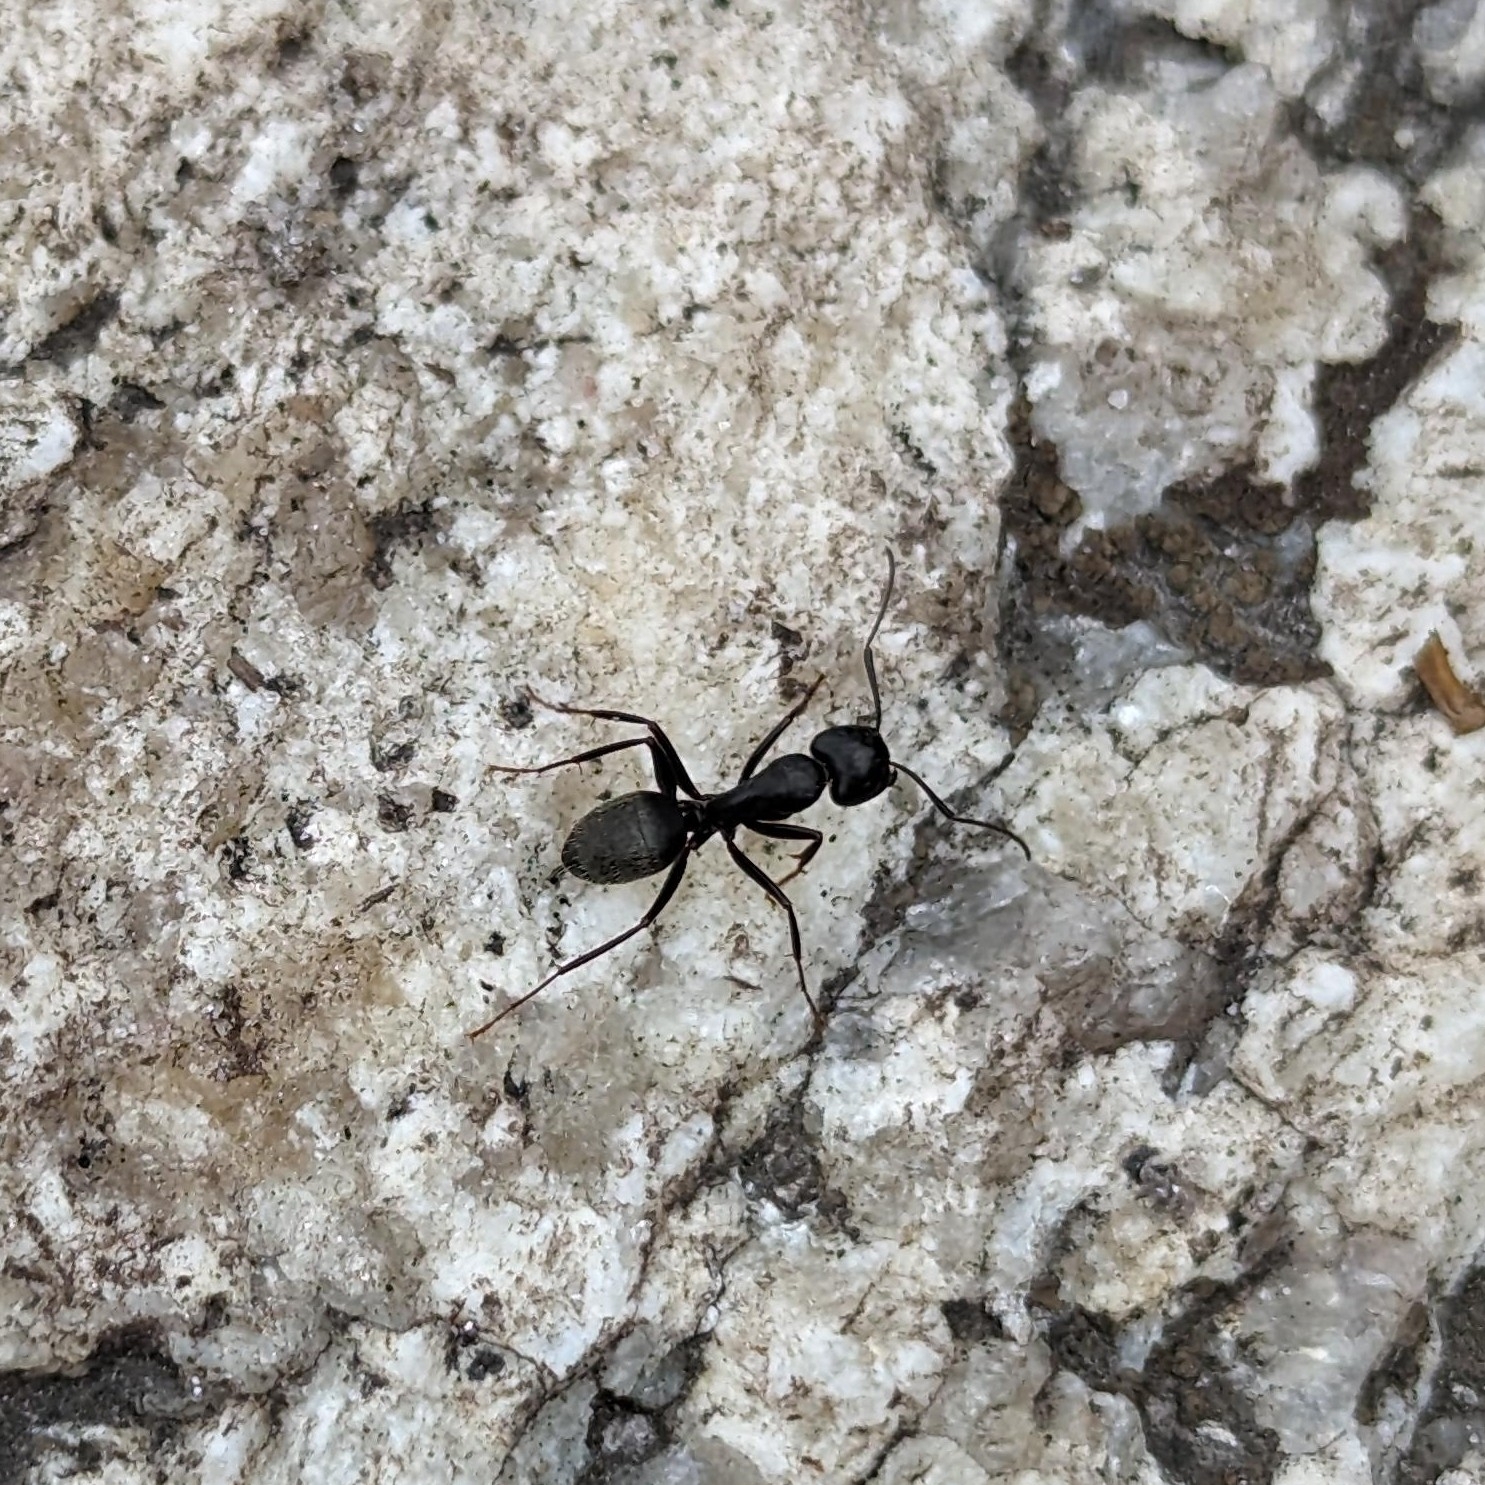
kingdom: Animalia
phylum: Arthropoda
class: Insecta
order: Hymenoptera
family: Formicidae
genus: Camponotus
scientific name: Camponotus pennsylvanicus
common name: Black carpenter ant
